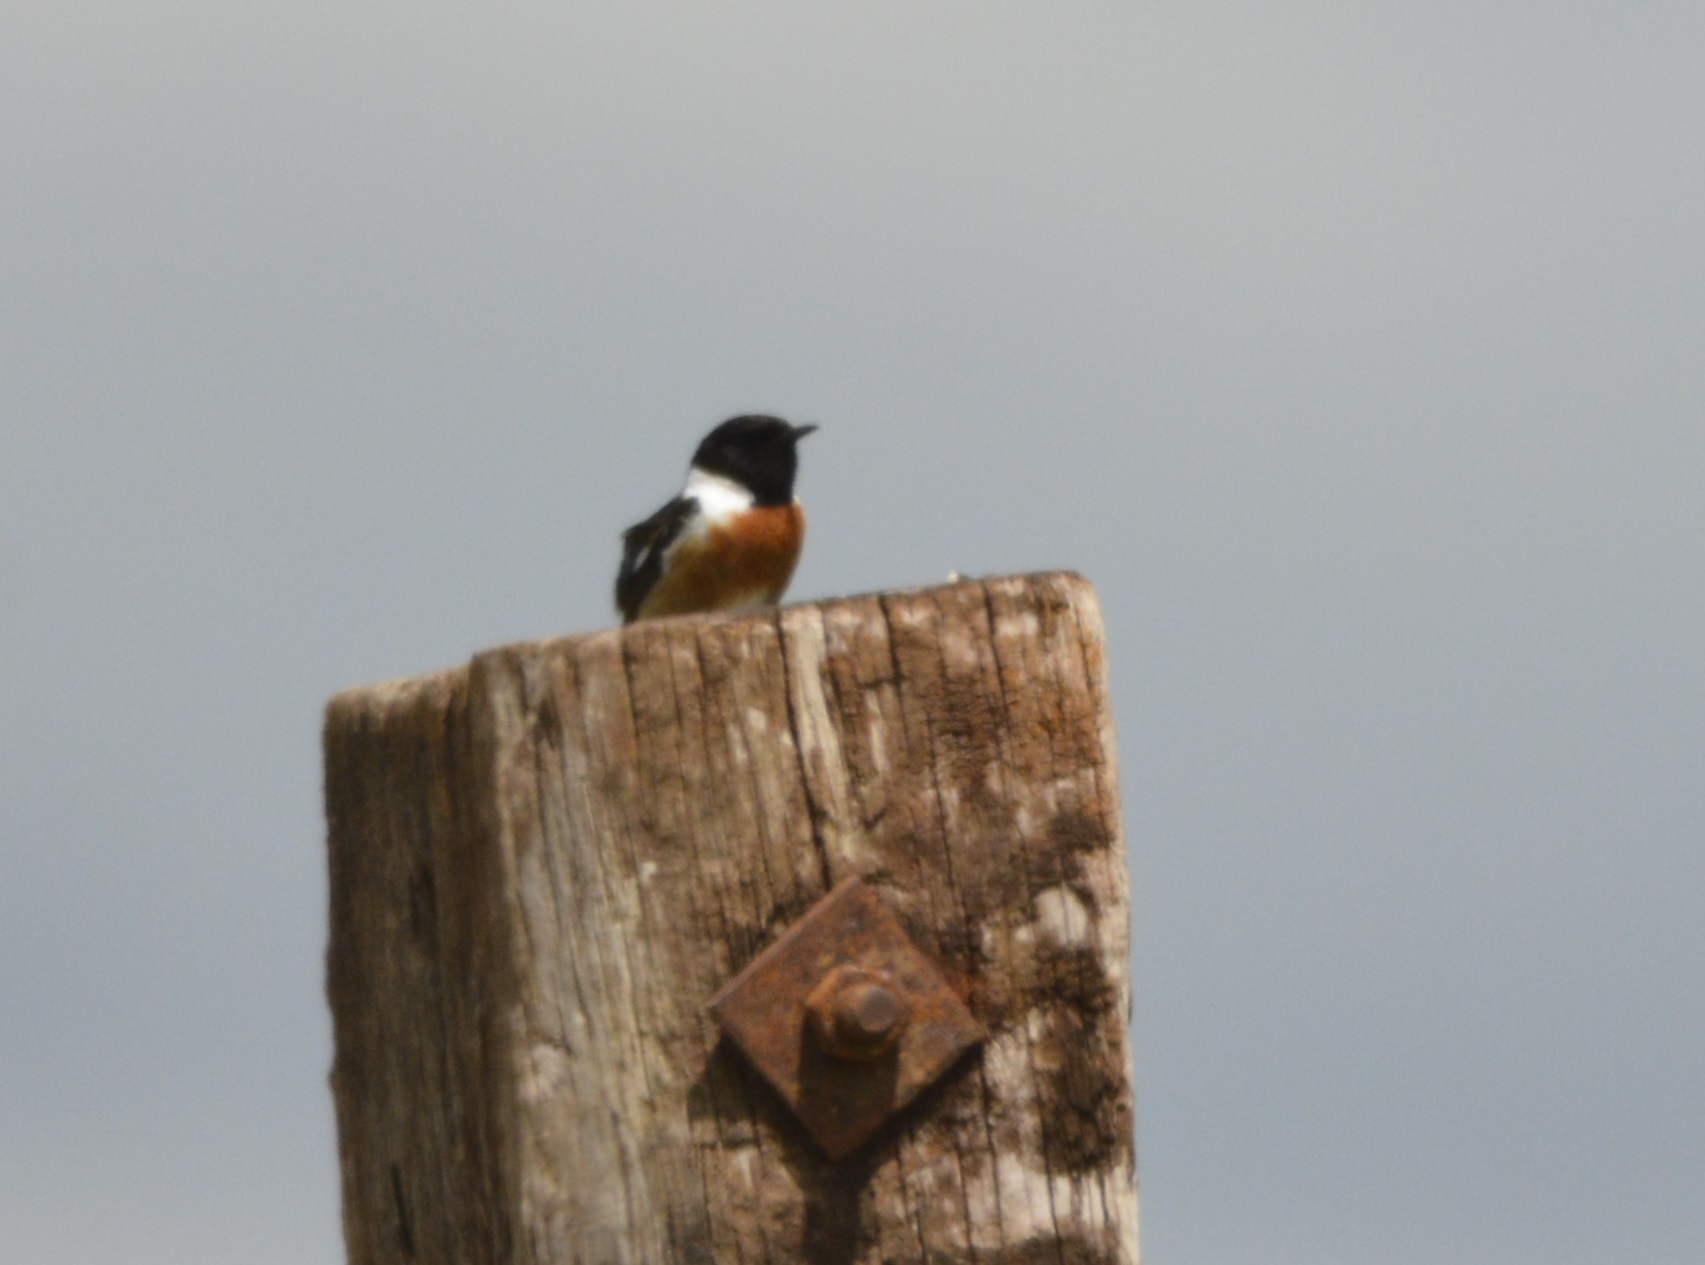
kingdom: Animalia
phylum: Chordata
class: Aves
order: Passeriformes
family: Muscicapidae
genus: Saxicola
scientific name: Saxicola rubicola
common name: European stonechat
